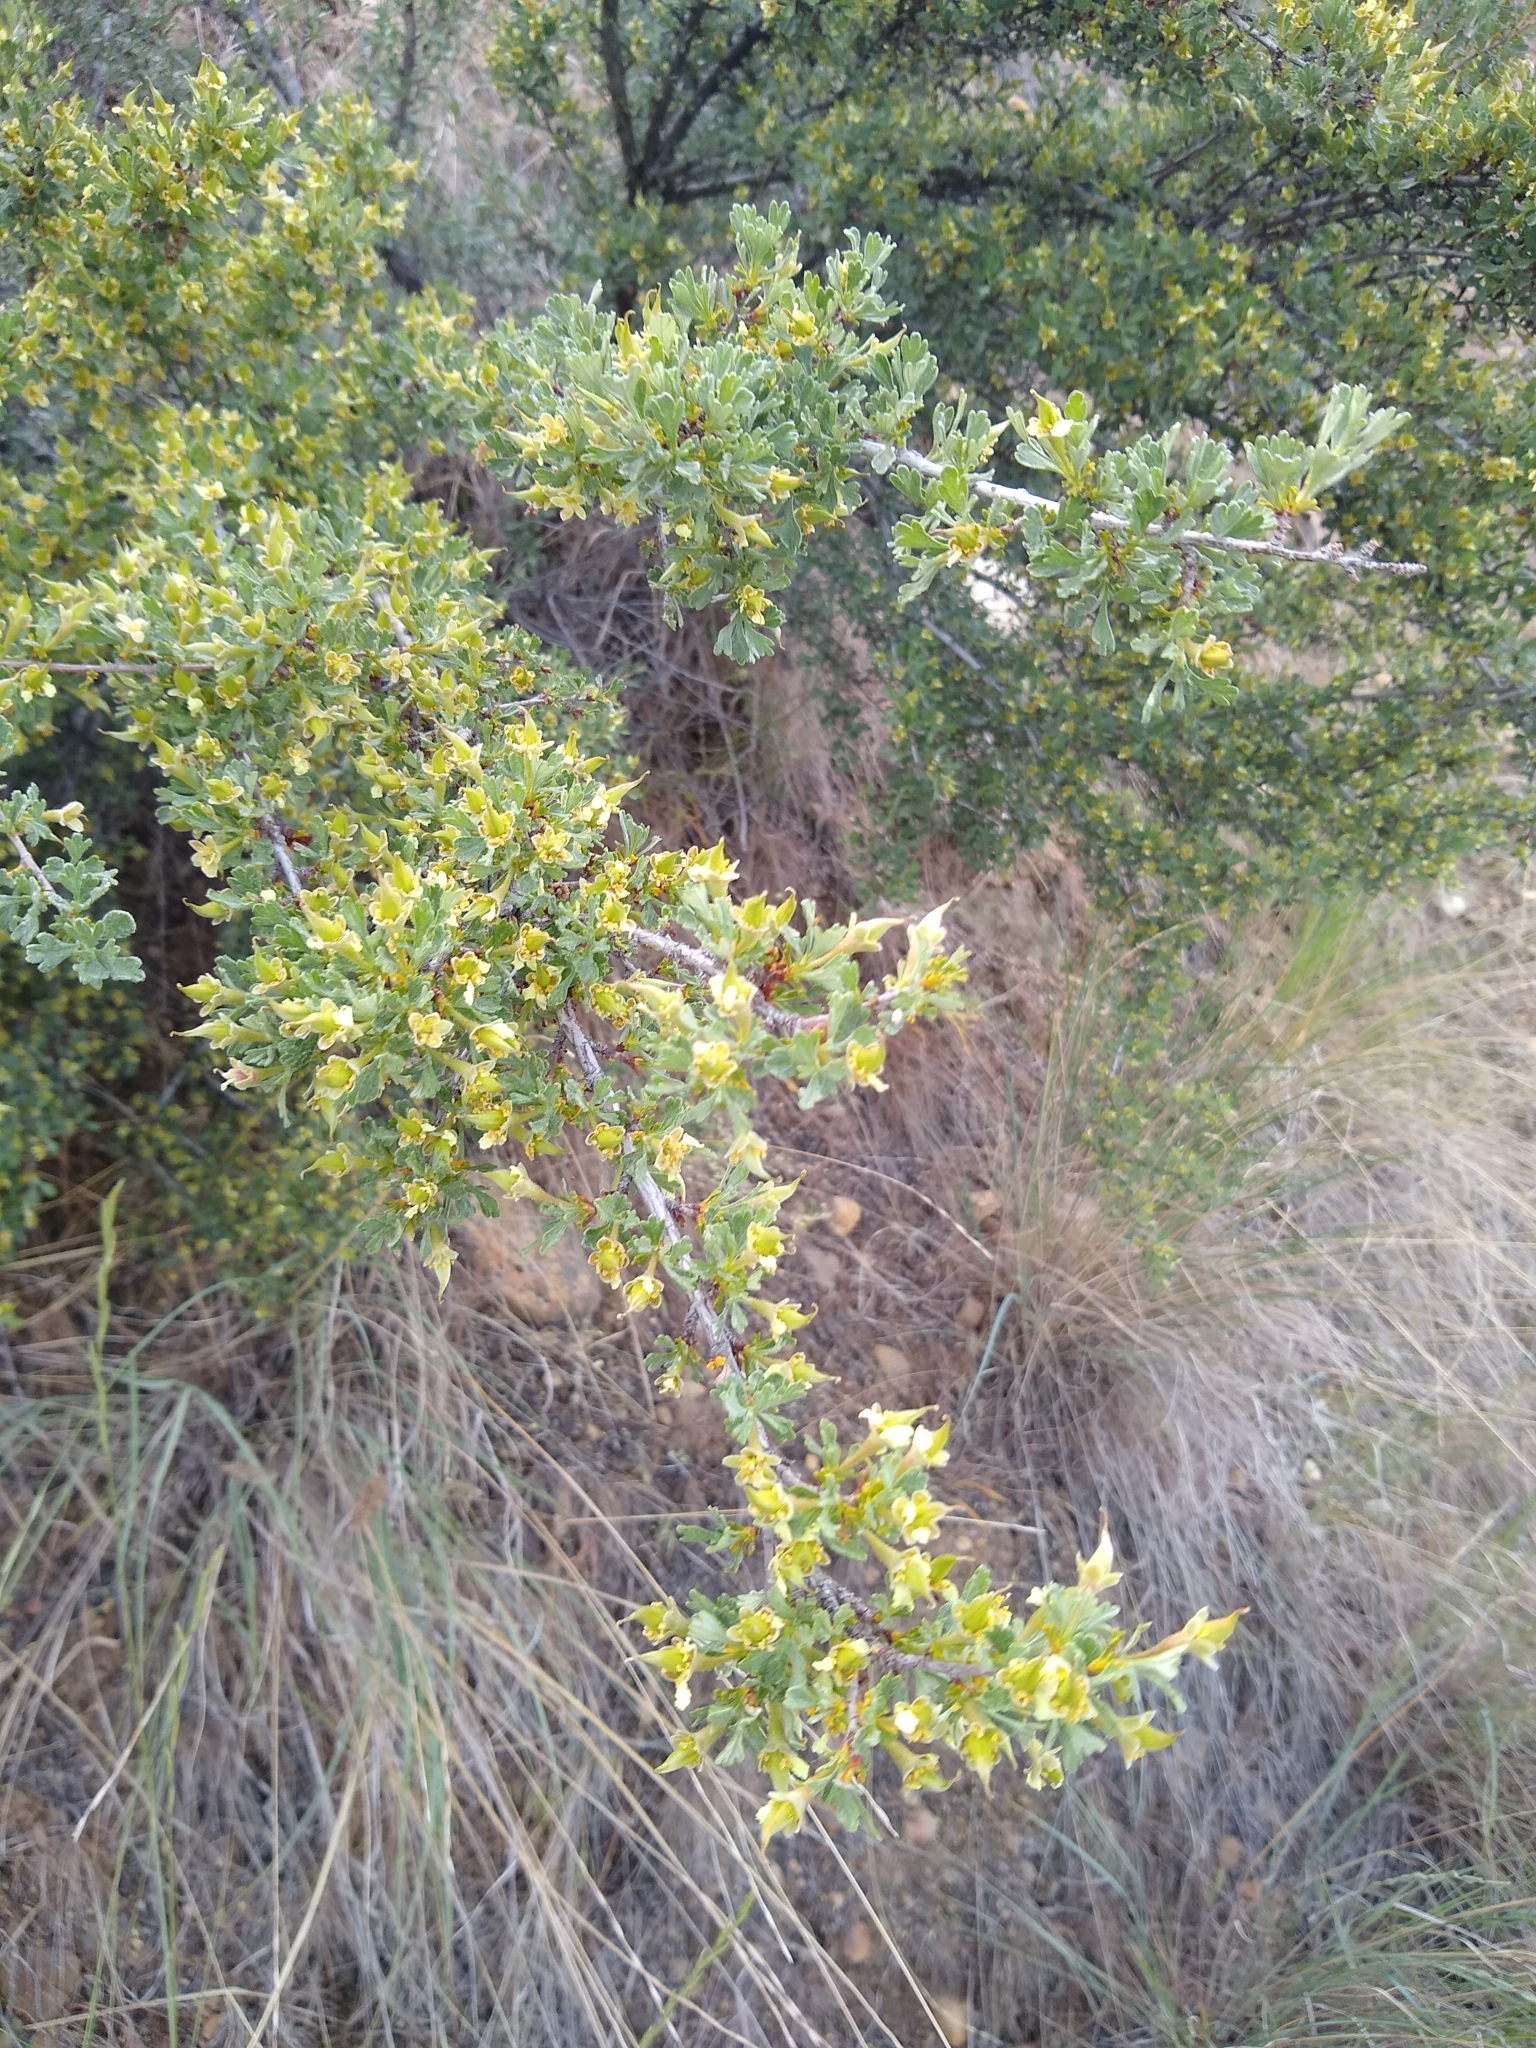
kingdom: Plantae
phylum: Tracheophyta
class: Magnoliopsida
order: Rosales
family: Rosaceae
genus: Purshia
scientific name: Purshia tridentata
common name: Antelope bitterbrush
